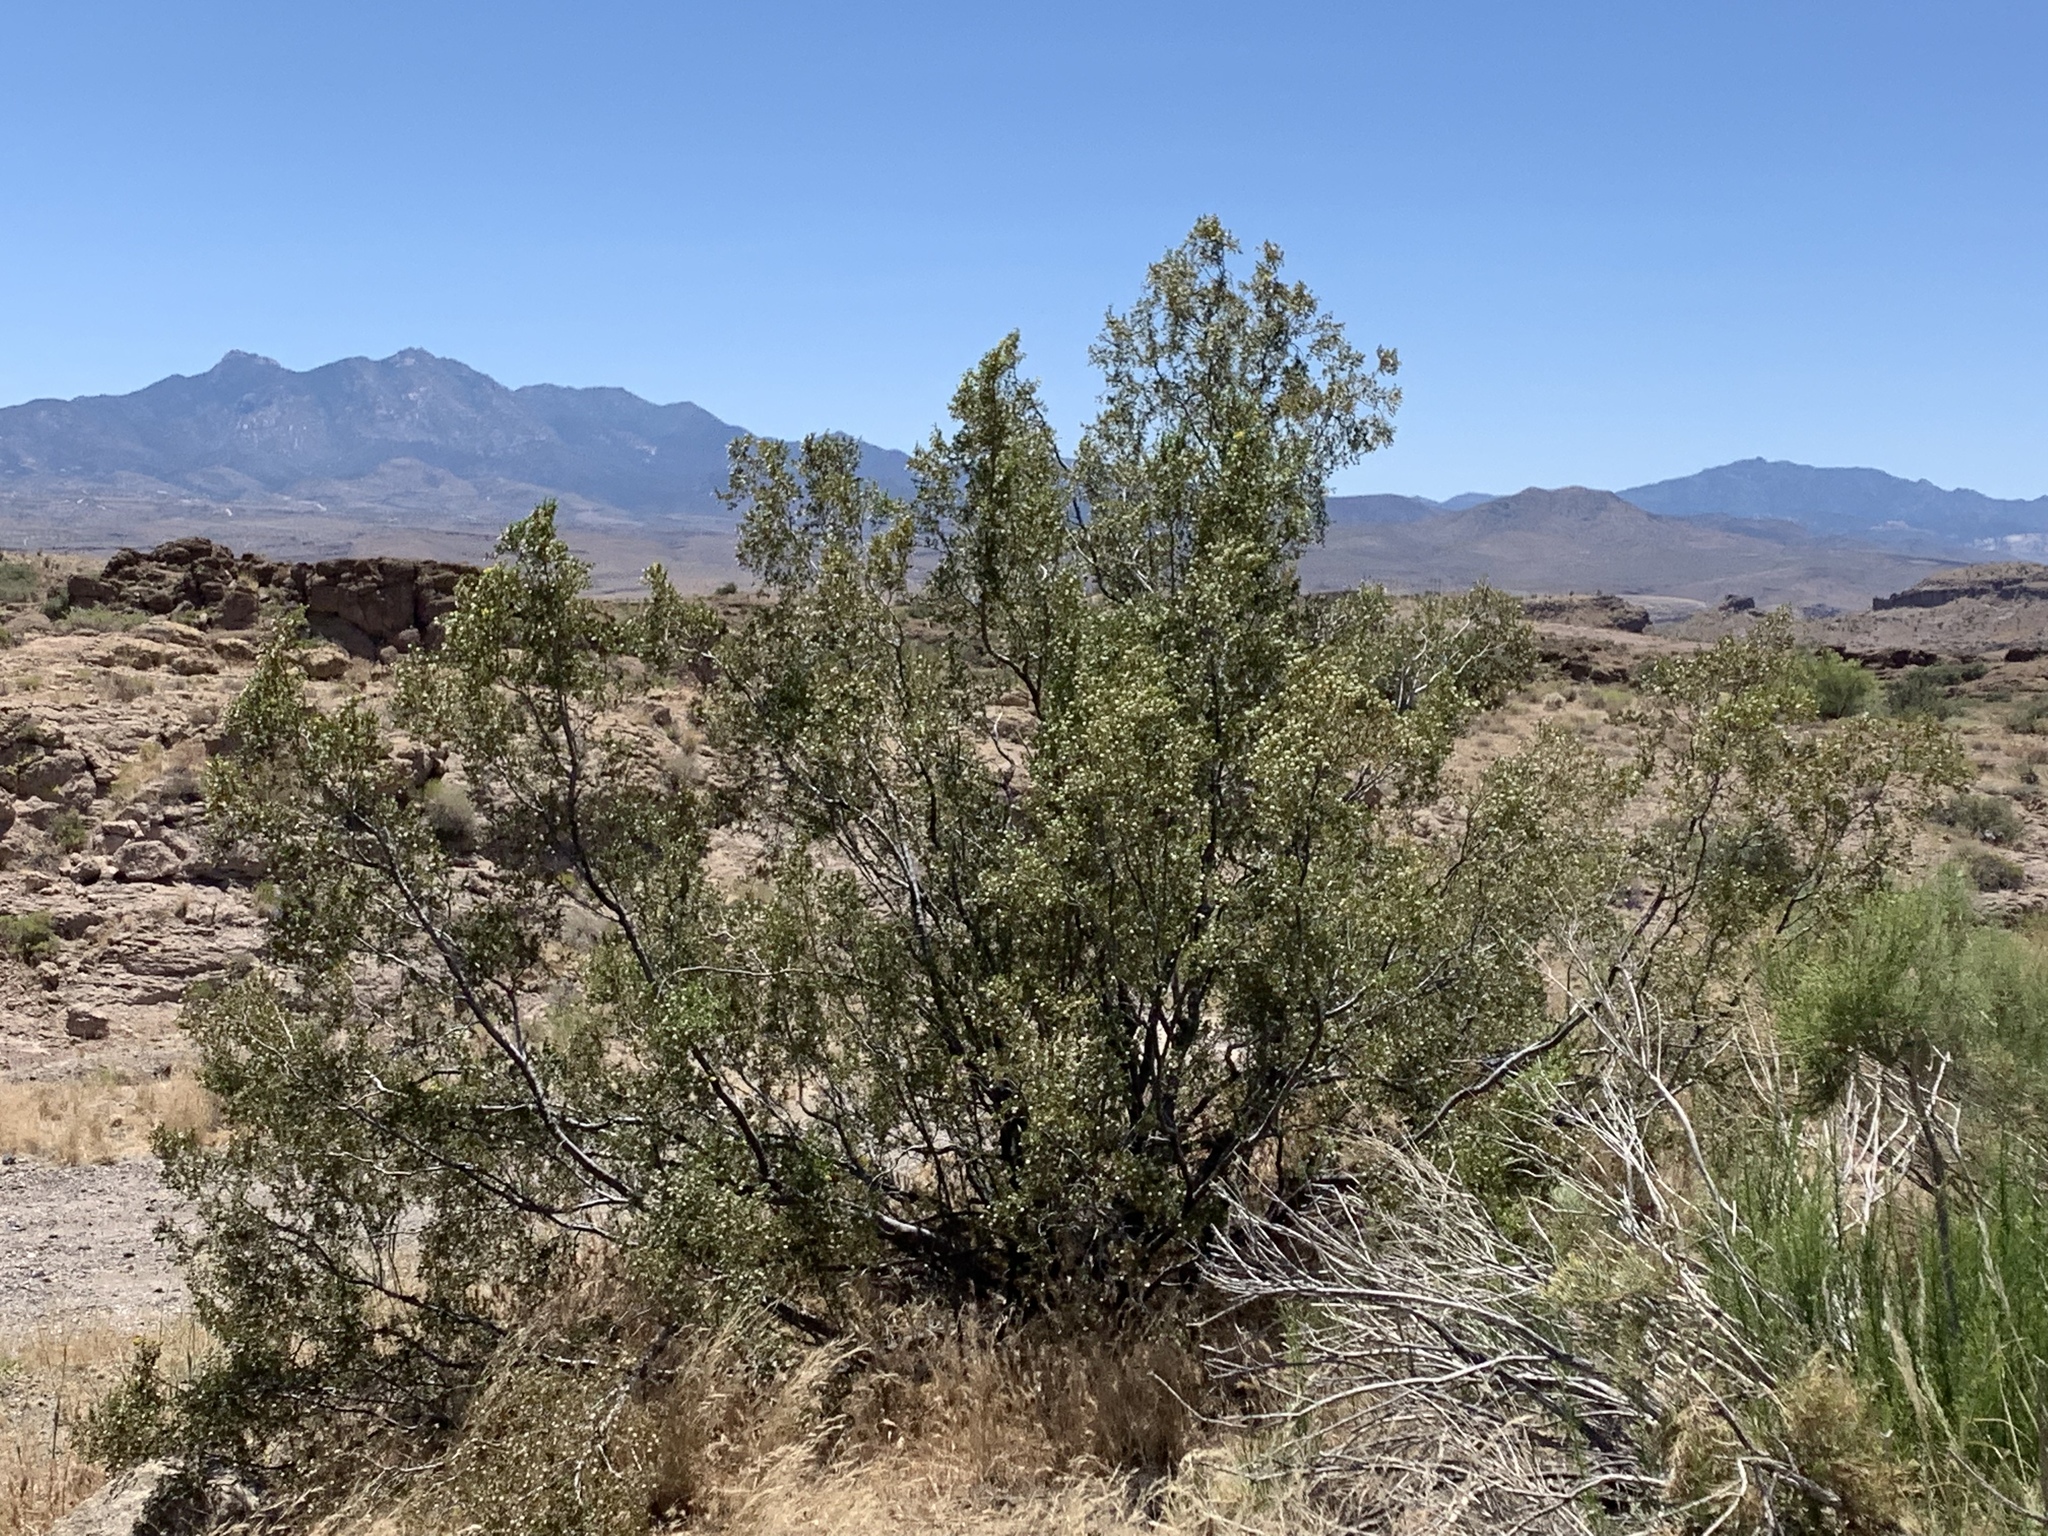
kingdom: Plantae
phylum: Tracheophyta
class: Magnoliopsida
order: Zygophyllales
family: Zygophyllaceae
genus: Larrea
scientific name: Larrea tridentata
